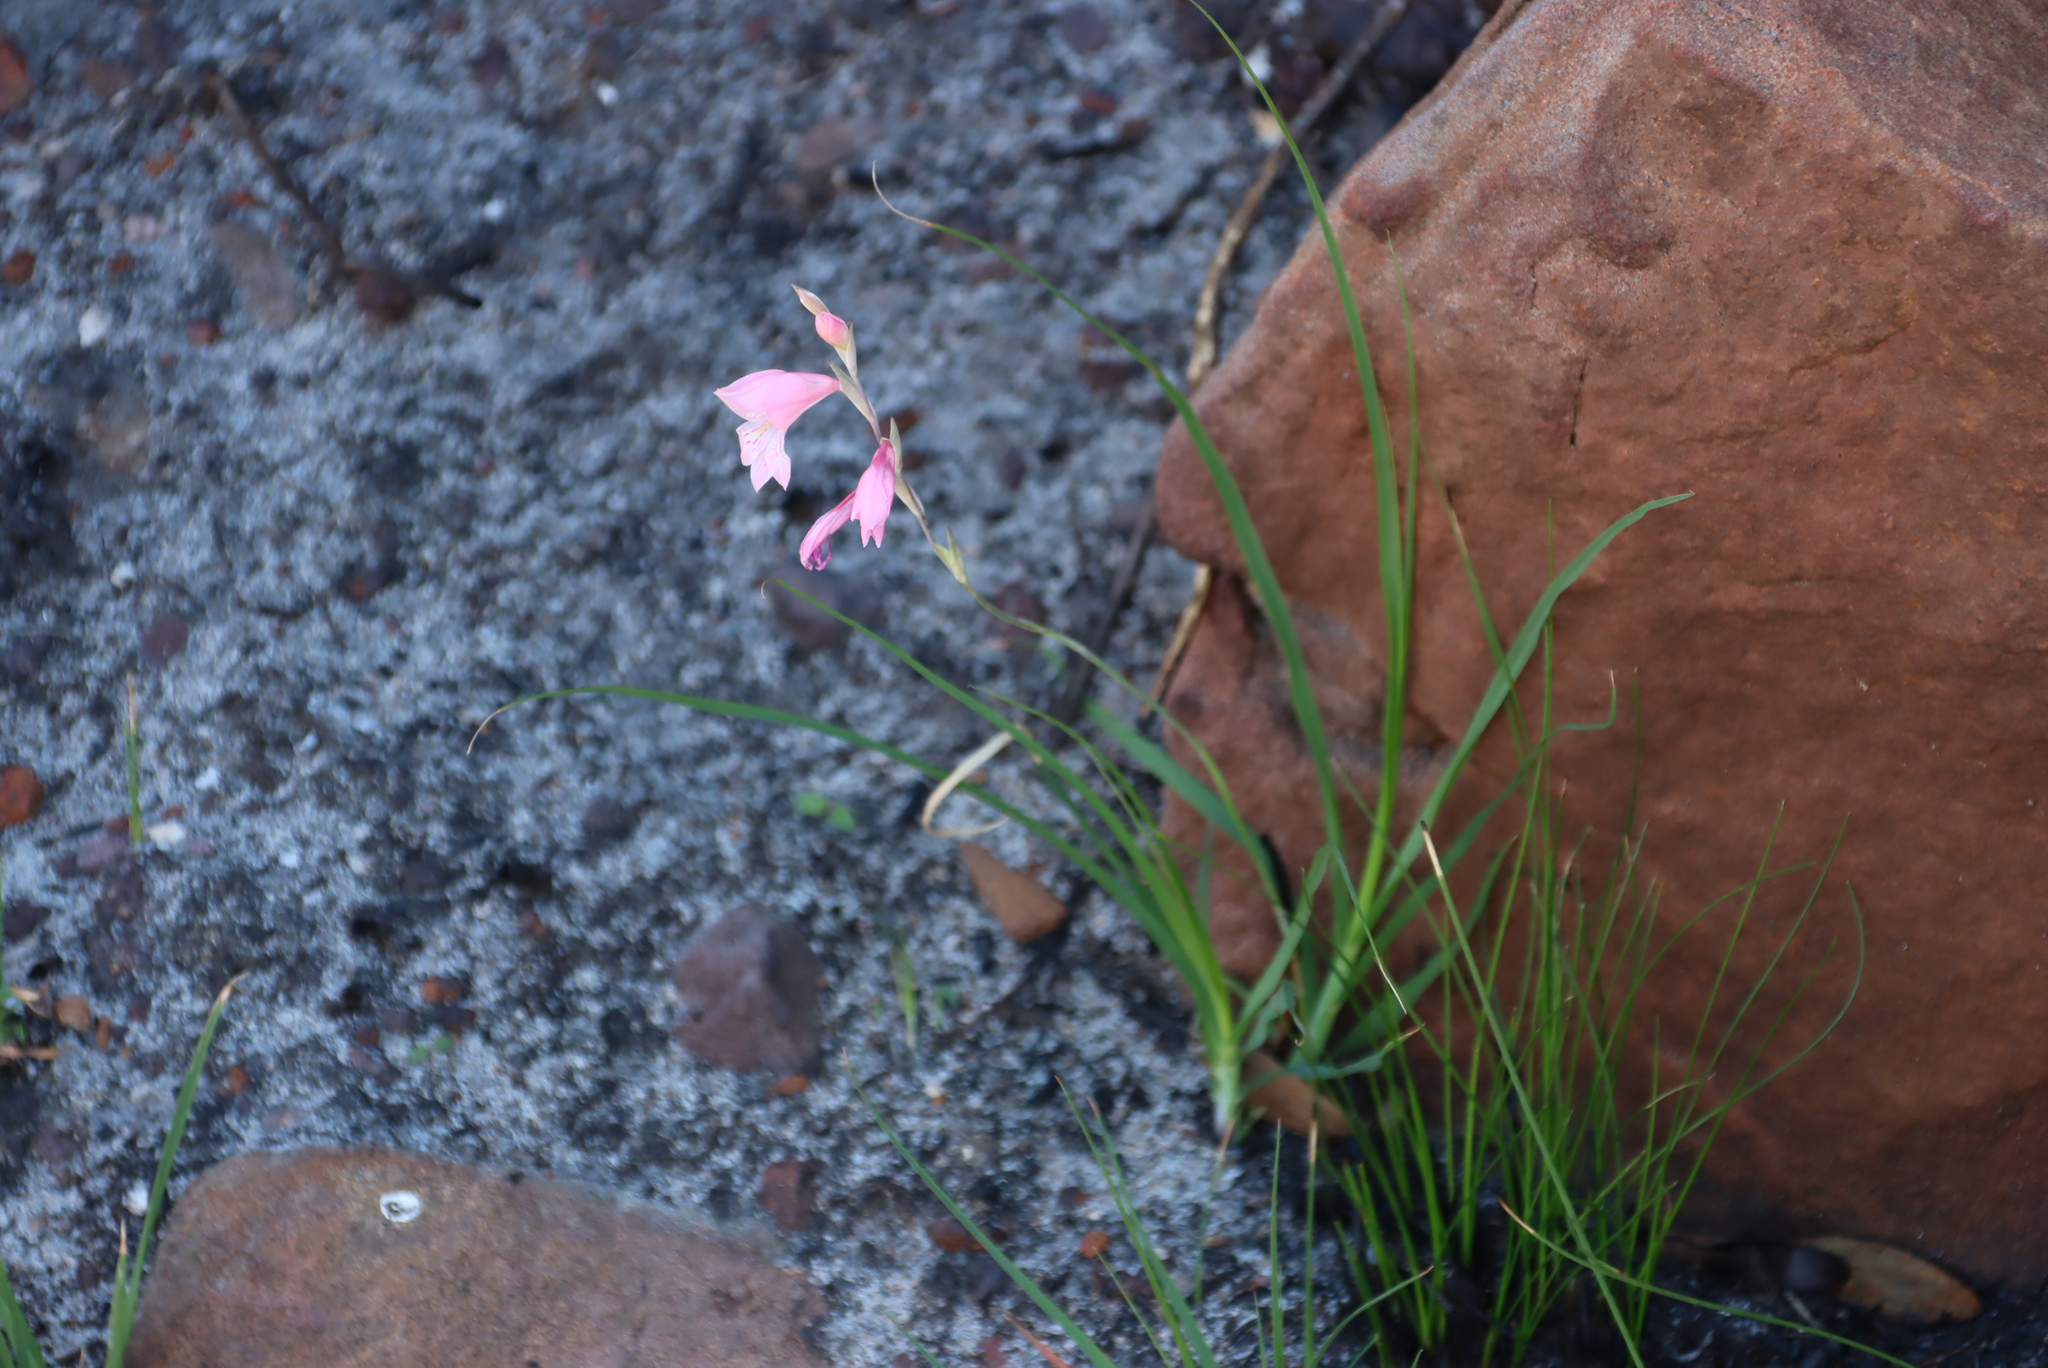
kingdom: Plantae
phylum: Tracheophyta
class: Liliopsida
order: Asparagales
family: Iridaceae
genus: Gladiolus
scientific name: Gladiolus brevifolius
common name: March pypie
